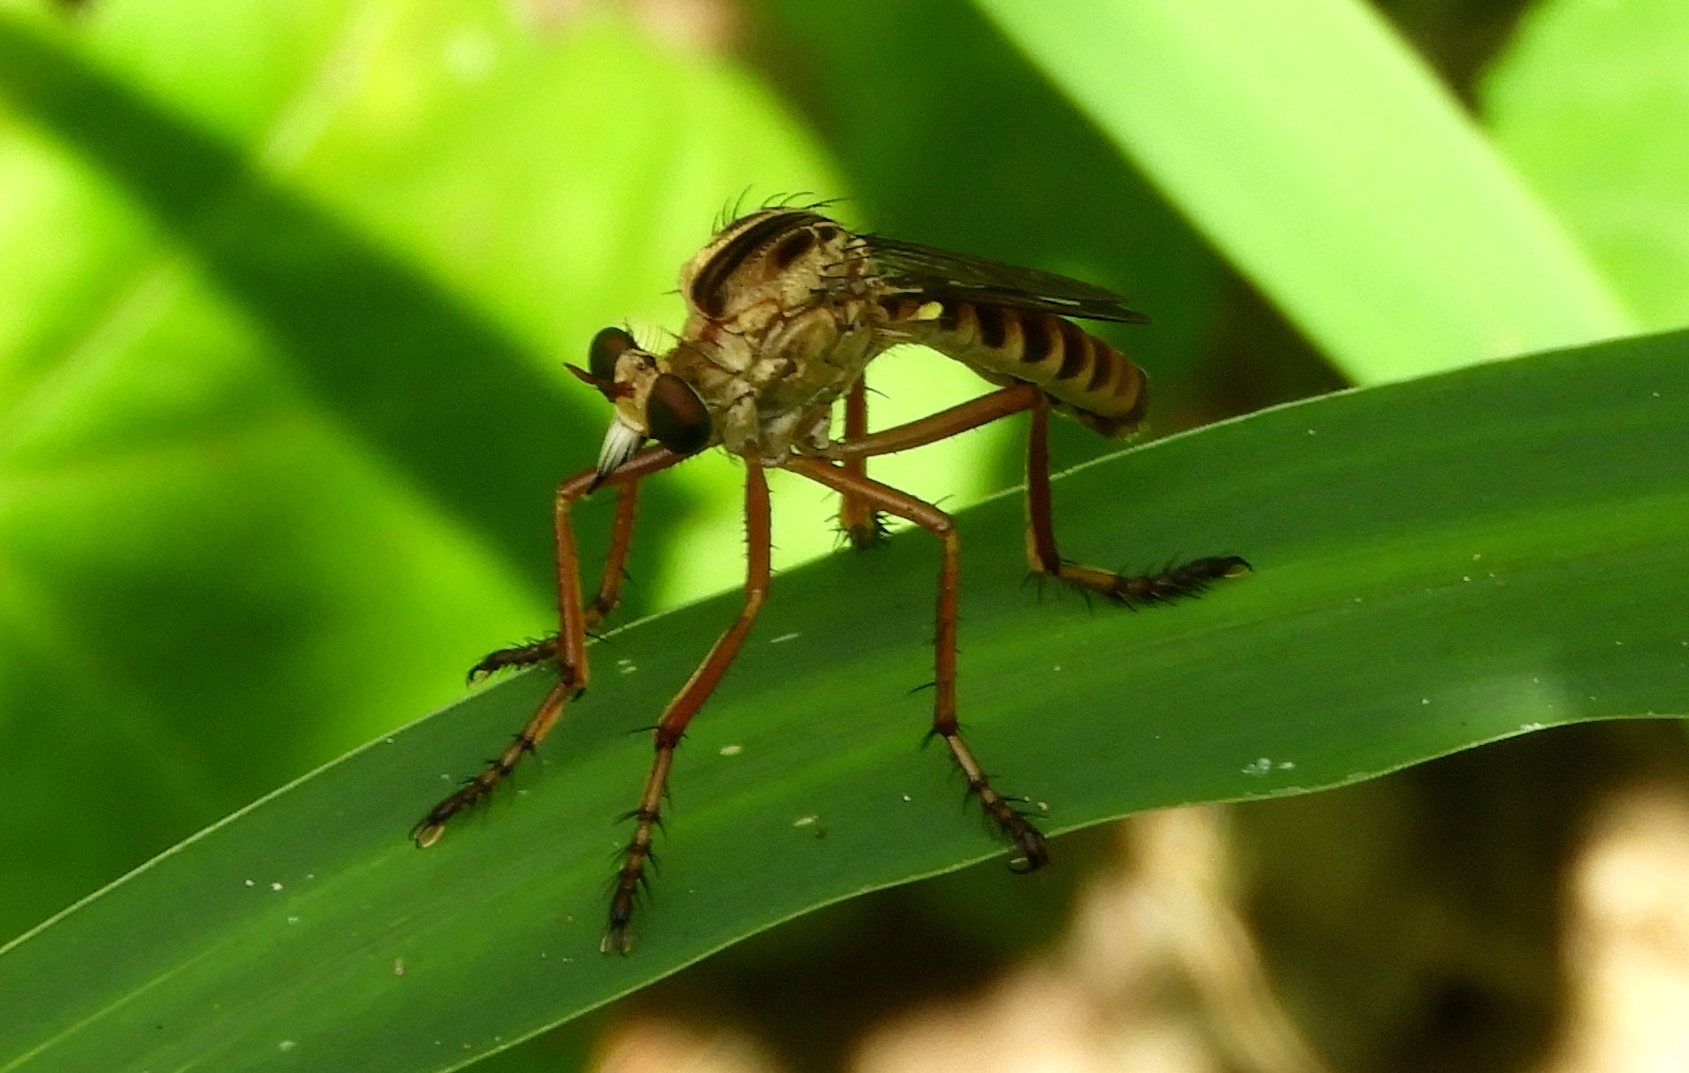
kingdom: Animalia
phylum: Arthropoda
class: Insecta
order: Diptera
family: Asilidae
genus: Diogmites
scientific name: Diogmites
